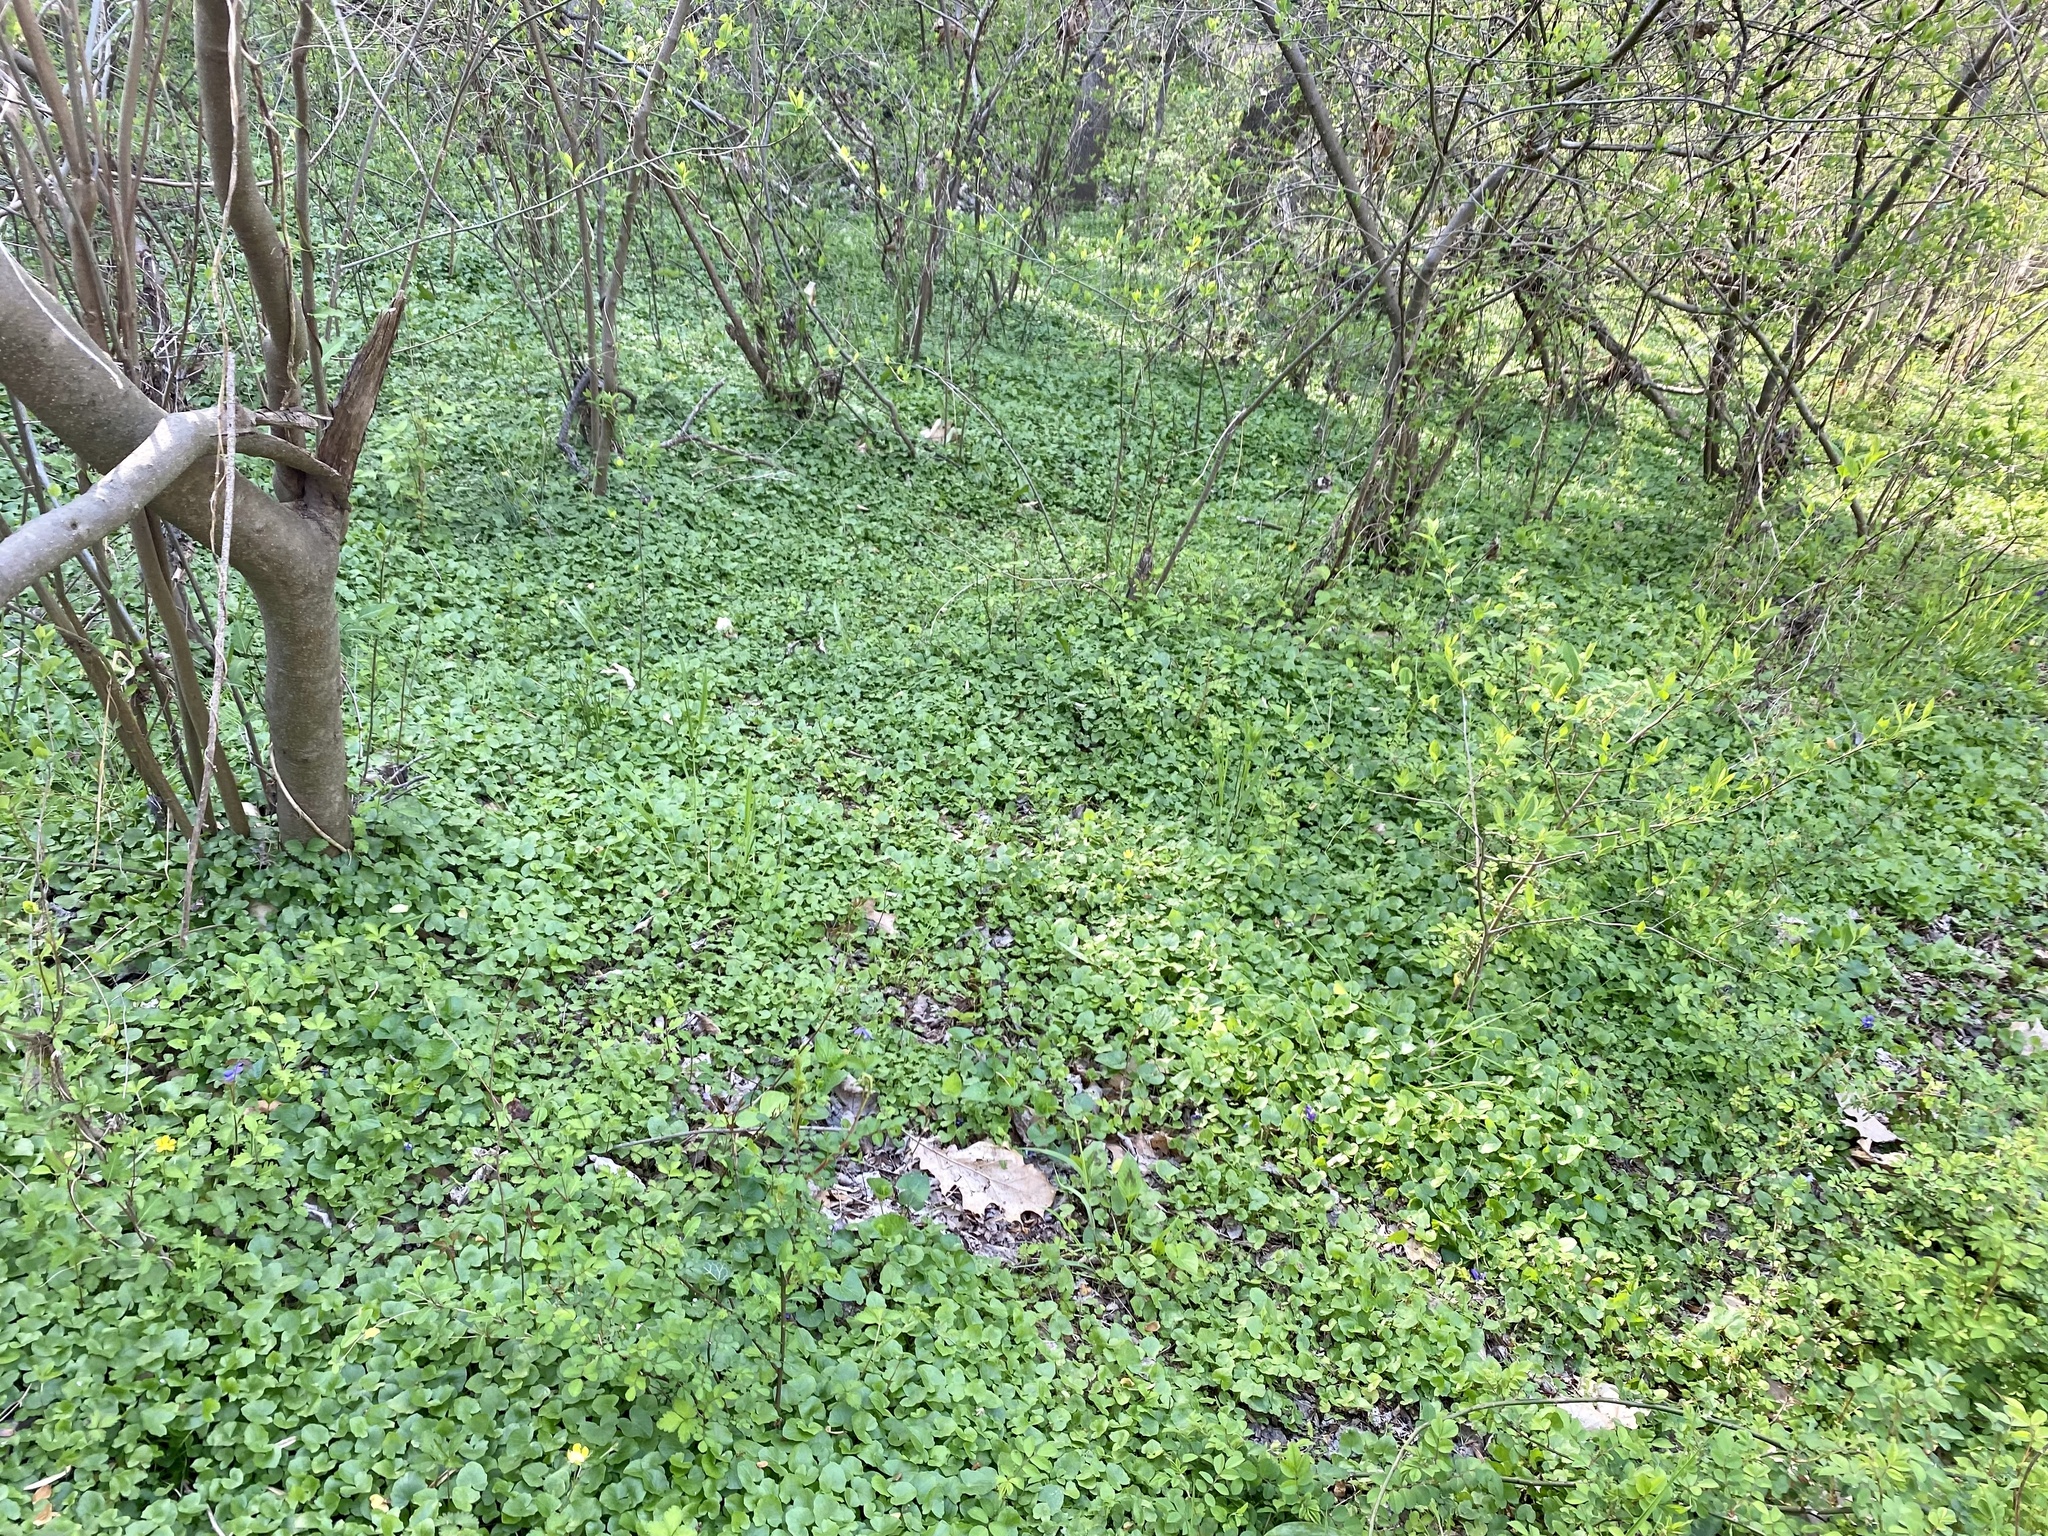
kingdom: Plantae
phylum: Tracheophyta
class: Magnoliopsida
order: Ranunculales
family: Ranunculaceae
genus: Ficaria
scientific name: Ficaria verna
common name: Lesser celandine
